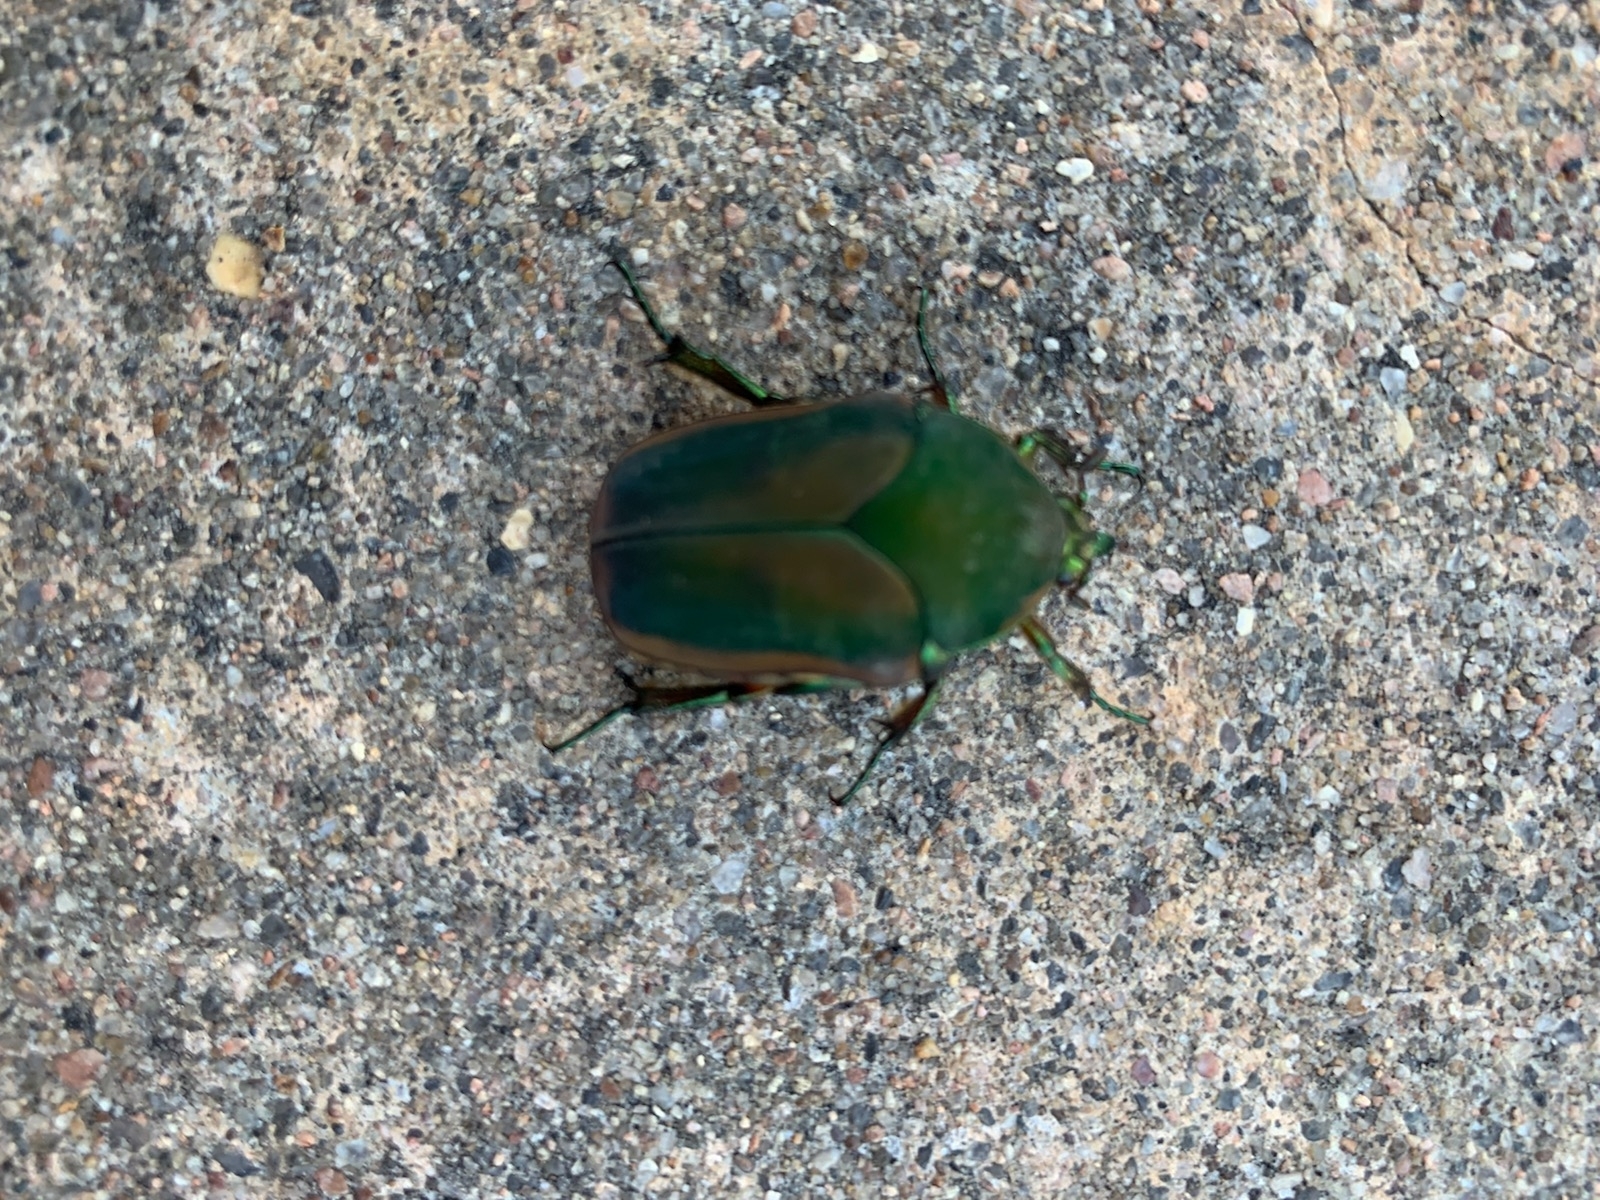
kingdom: Animalia
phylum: Arthropoda
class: Insecta
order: Coleoptera
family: Scarabaeidae
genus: Cotinis
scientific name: Cotinis nitida
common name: Common green june beetle
